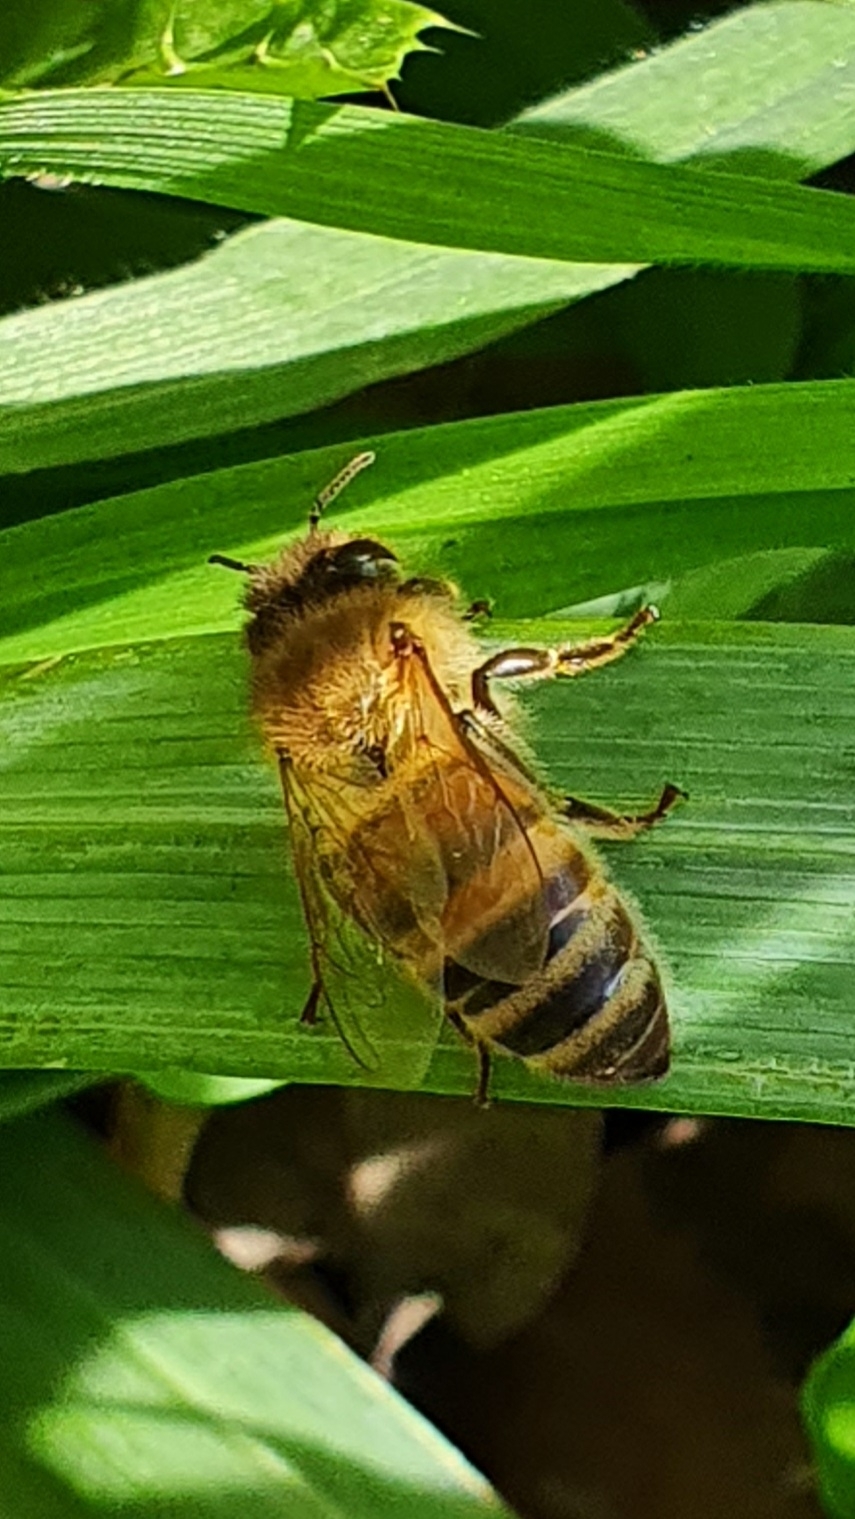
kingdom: Animalia
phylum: Arthropoda
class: Insecta
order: Hymenoptera
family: Apidae
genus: Apis
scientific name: Apis mellifera
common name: Honey bee
